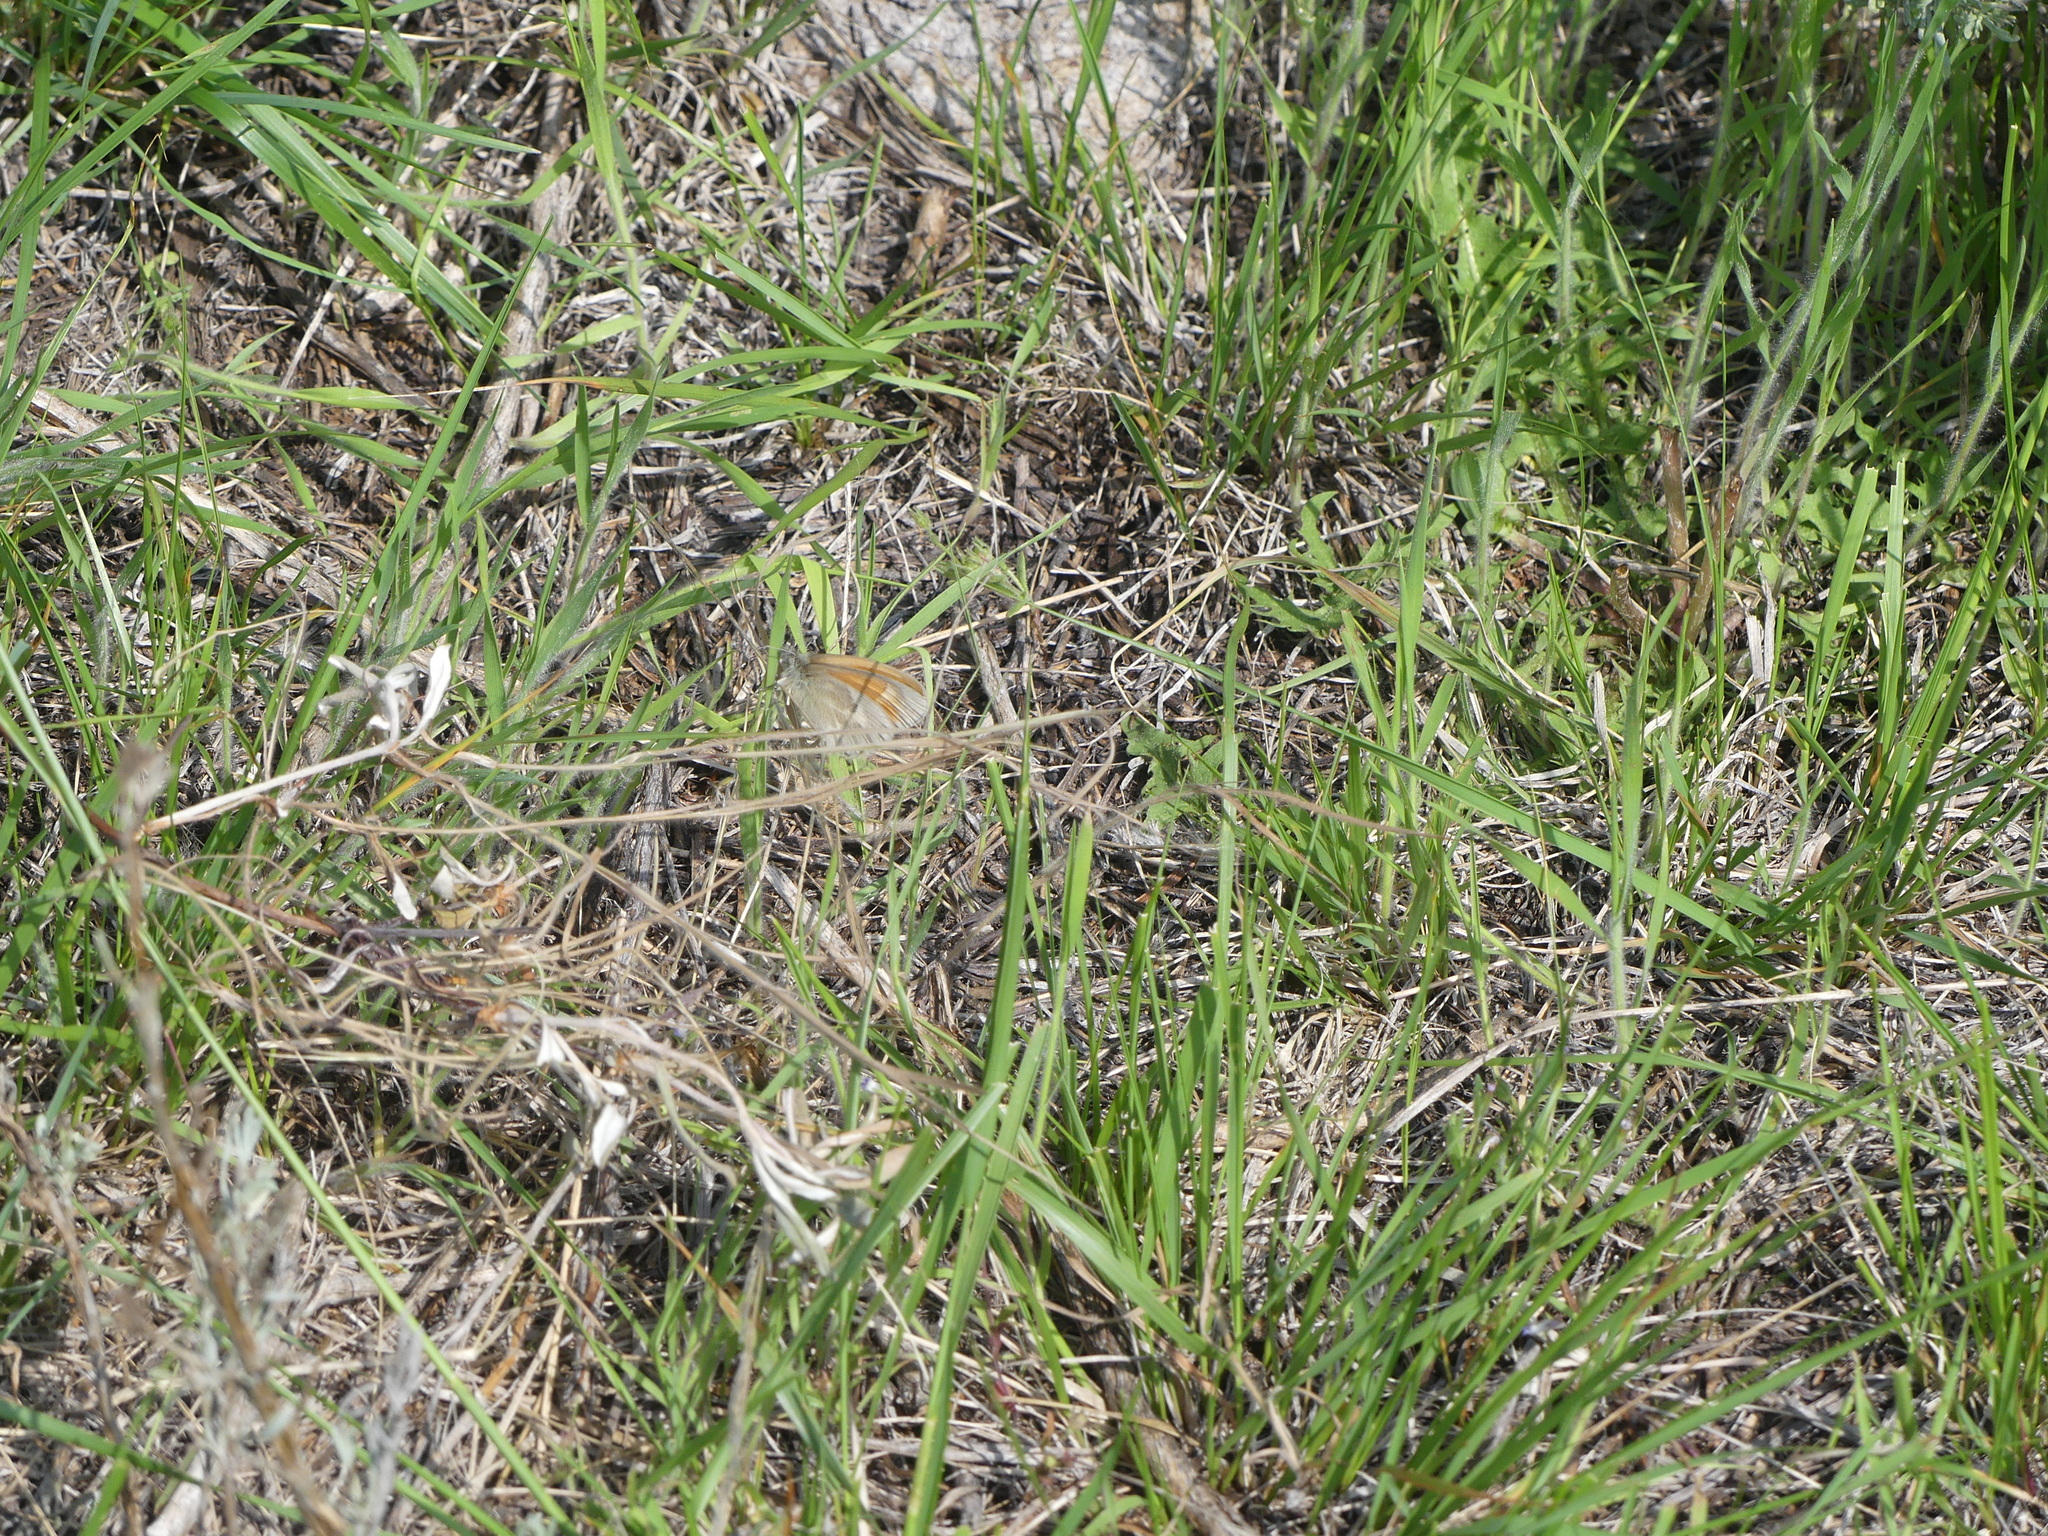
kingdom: Animalia
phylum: Arthropoda
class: Insecta
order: Lepidoptera
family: Nymphalidae
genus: Coenonympha
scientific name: Coenonympha california
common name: Common ringlet
